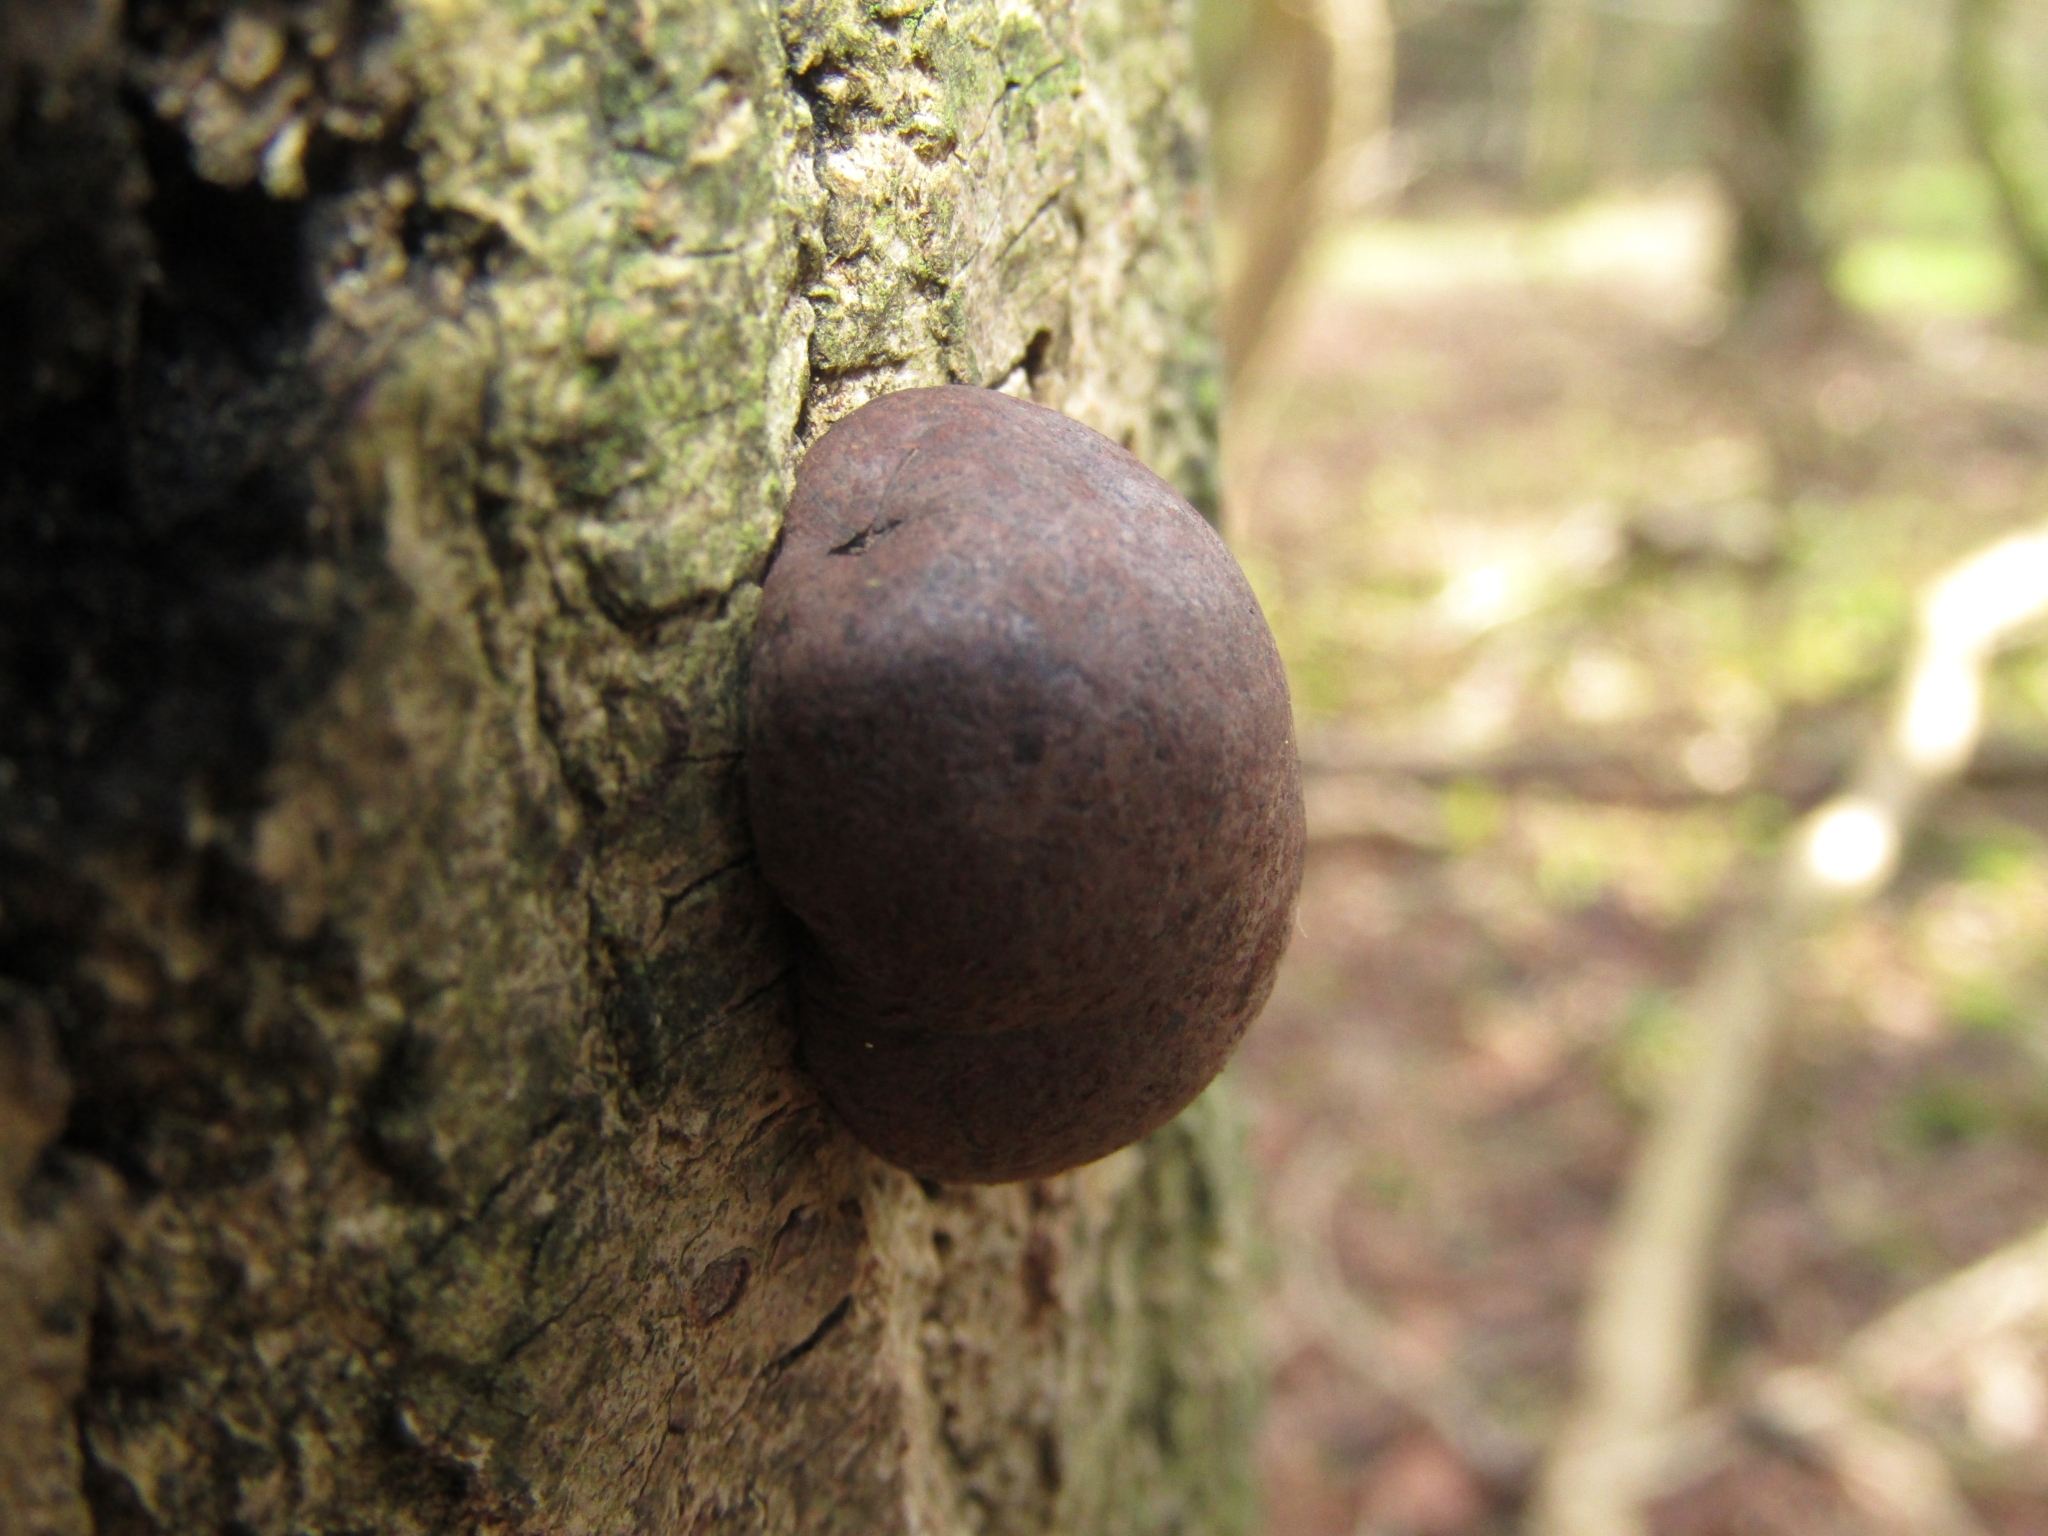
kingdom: Fungi
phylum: Ascomycota
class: Sordariomycetes
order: Xylariales
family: Hypoxylaceae
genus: Daldinia
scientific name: Daldinia concentrica
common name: Cramp balls
